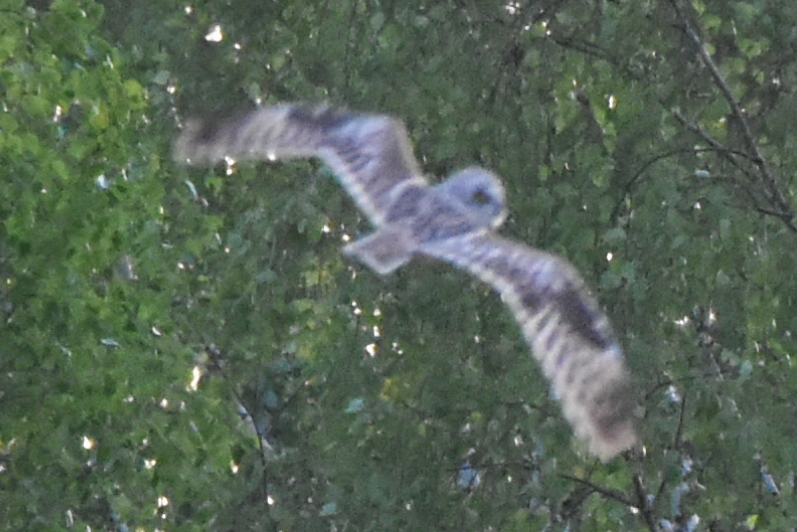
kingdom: Animalia
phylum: Chordata
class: Aves
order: Strigiformes
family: Strigidae
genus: Asio
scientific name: Asio flammeus
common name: Short-eared owl
